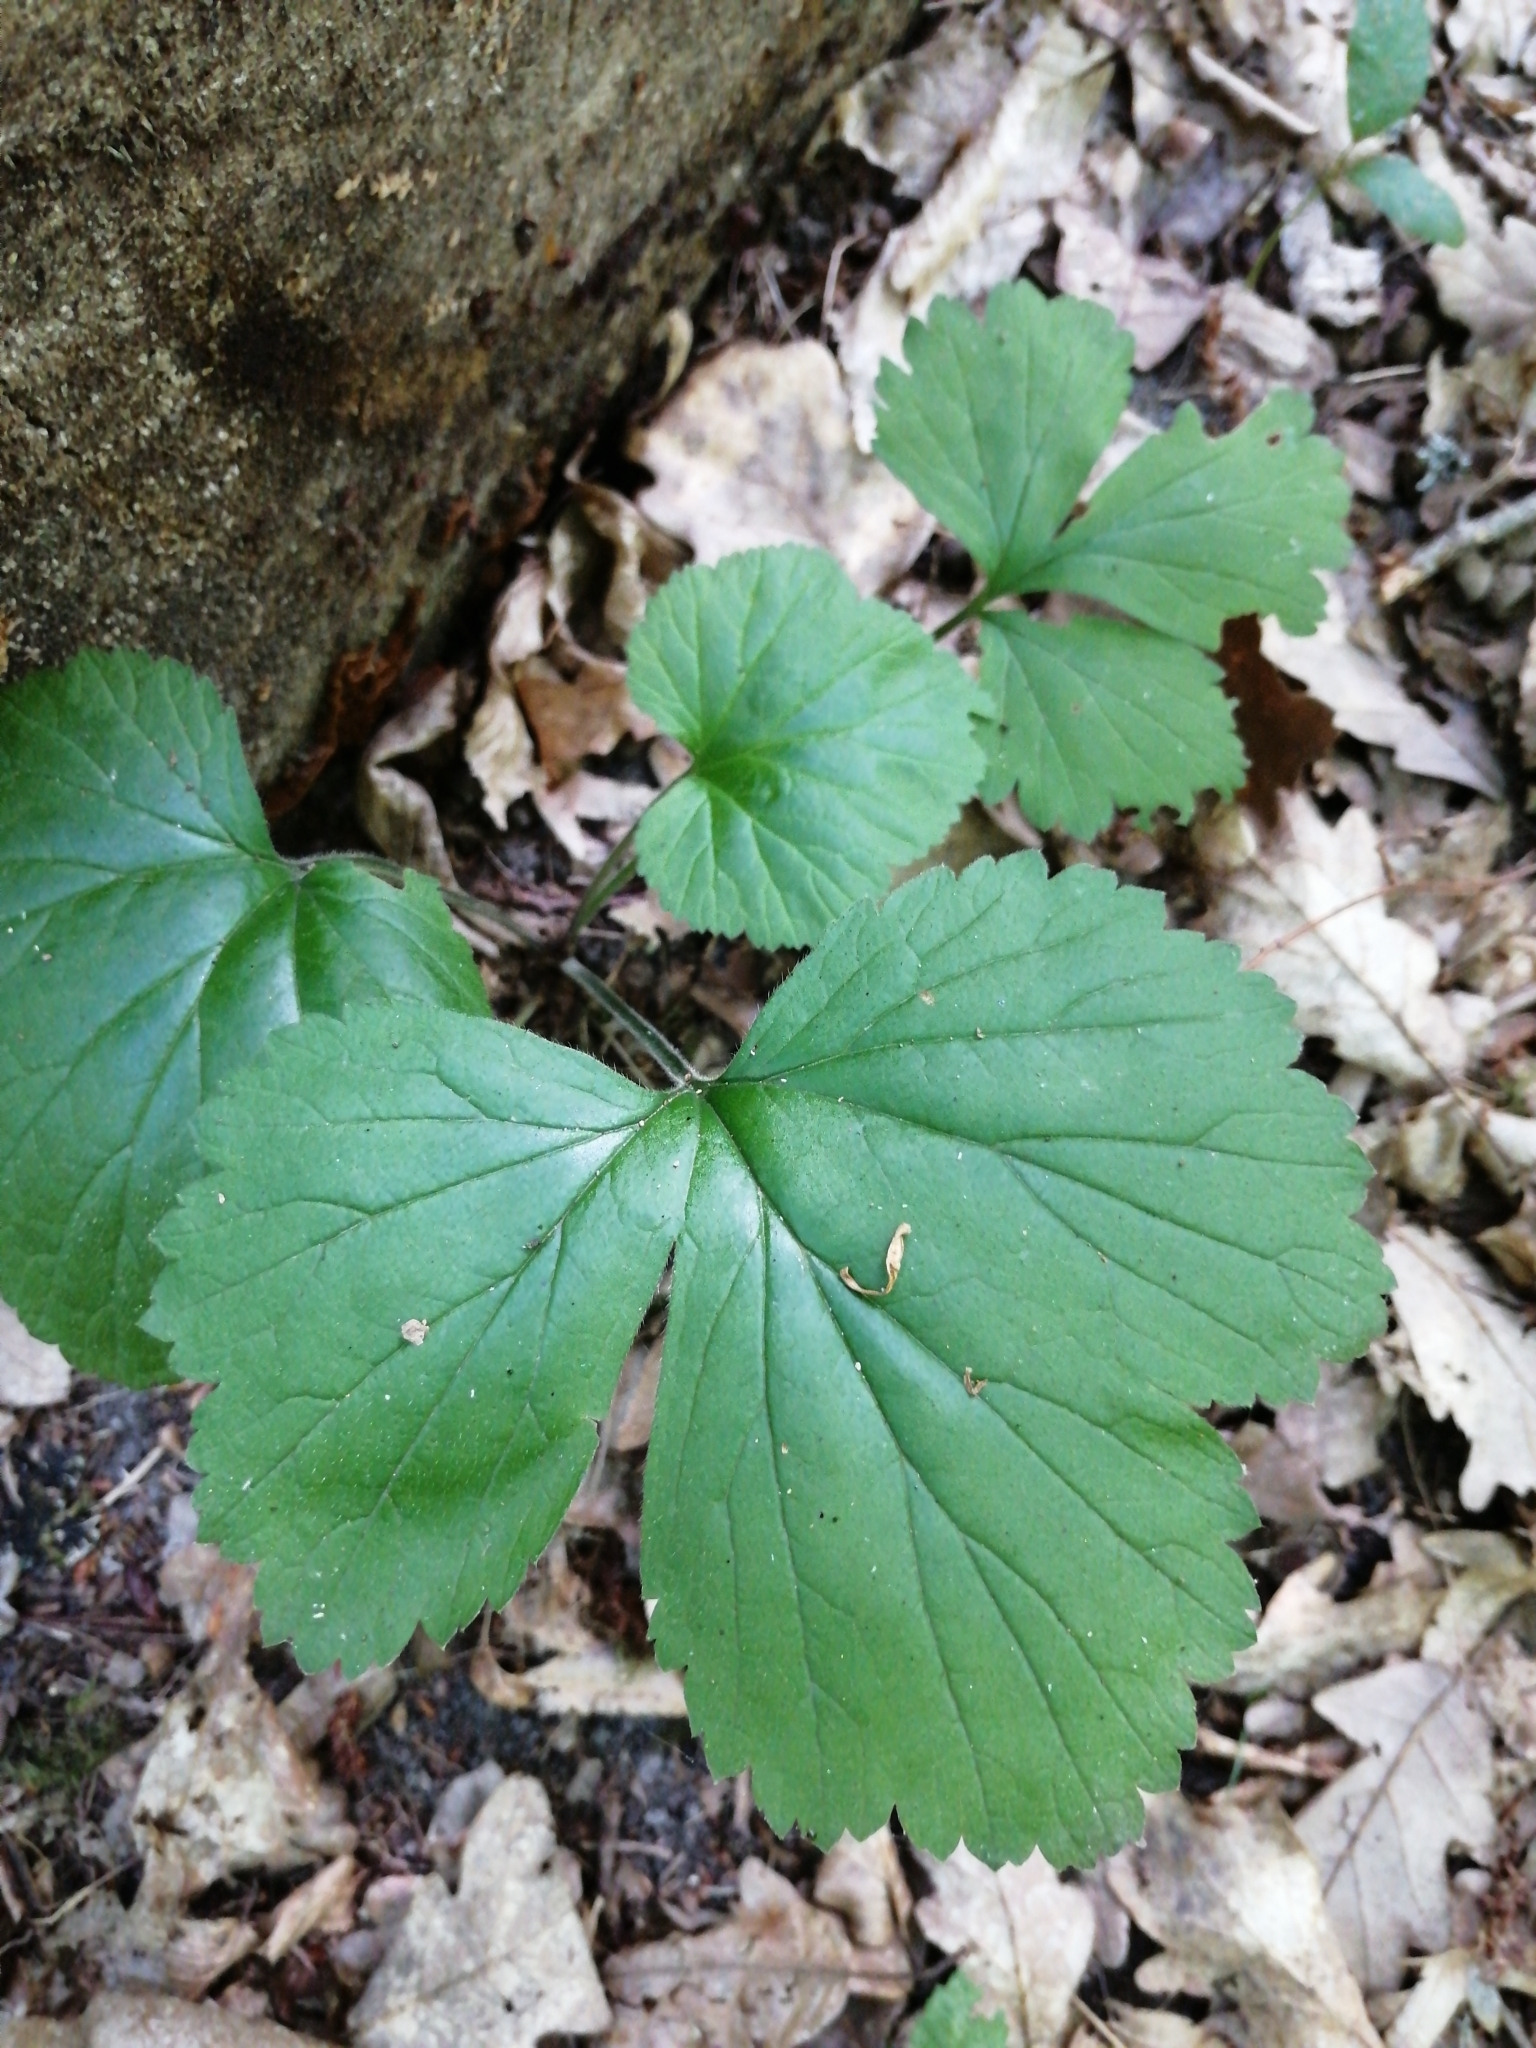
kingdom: Plantae
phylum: Tracheophyta
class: Magnoliopsida
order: Rosales
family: Rosaceae
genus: Geum
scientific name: Geum urbanum
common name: Wood avens
